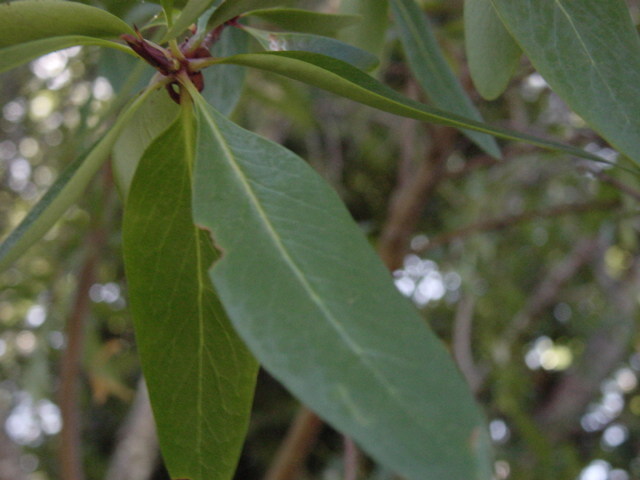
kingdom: Plantae
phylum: Tracheophyta
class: Magnoliopsida
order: Proteales
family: Proteaceae
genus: Embothrium
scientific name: Embothrium coccineum
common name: Chilean firebush
